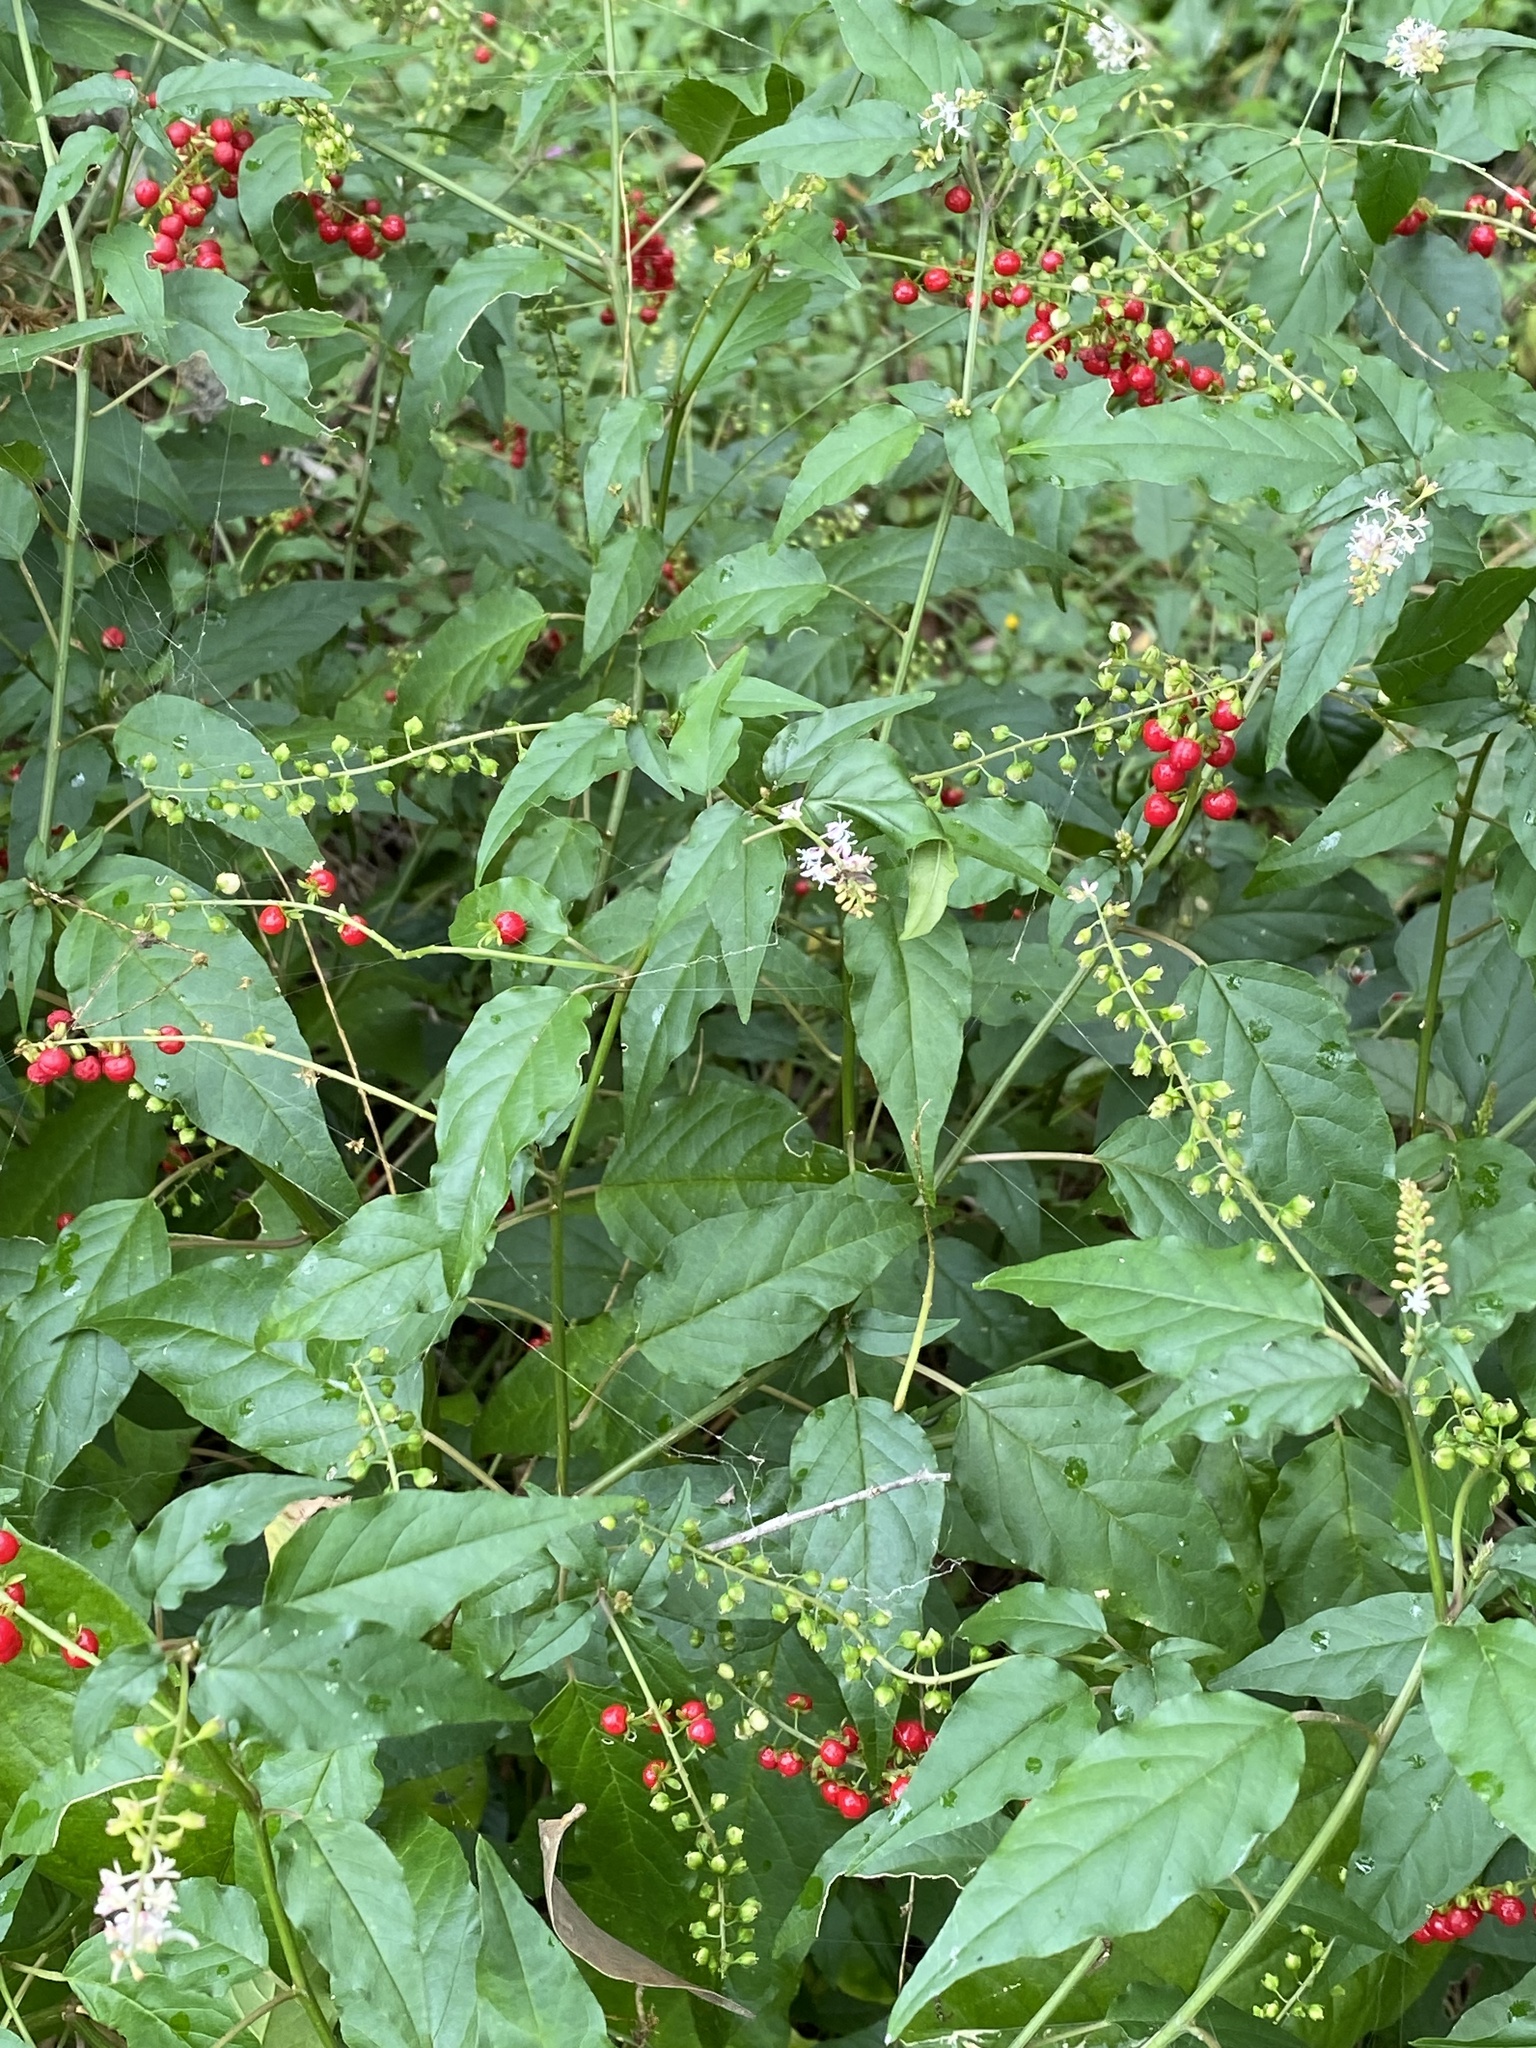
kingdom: Plantae
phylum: Tracheophyta
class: Magnoliopsida
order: Caryophyllales
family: Phytolaccaceae
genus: Rivina
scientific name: Rivina humilis
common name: Rougeplant
